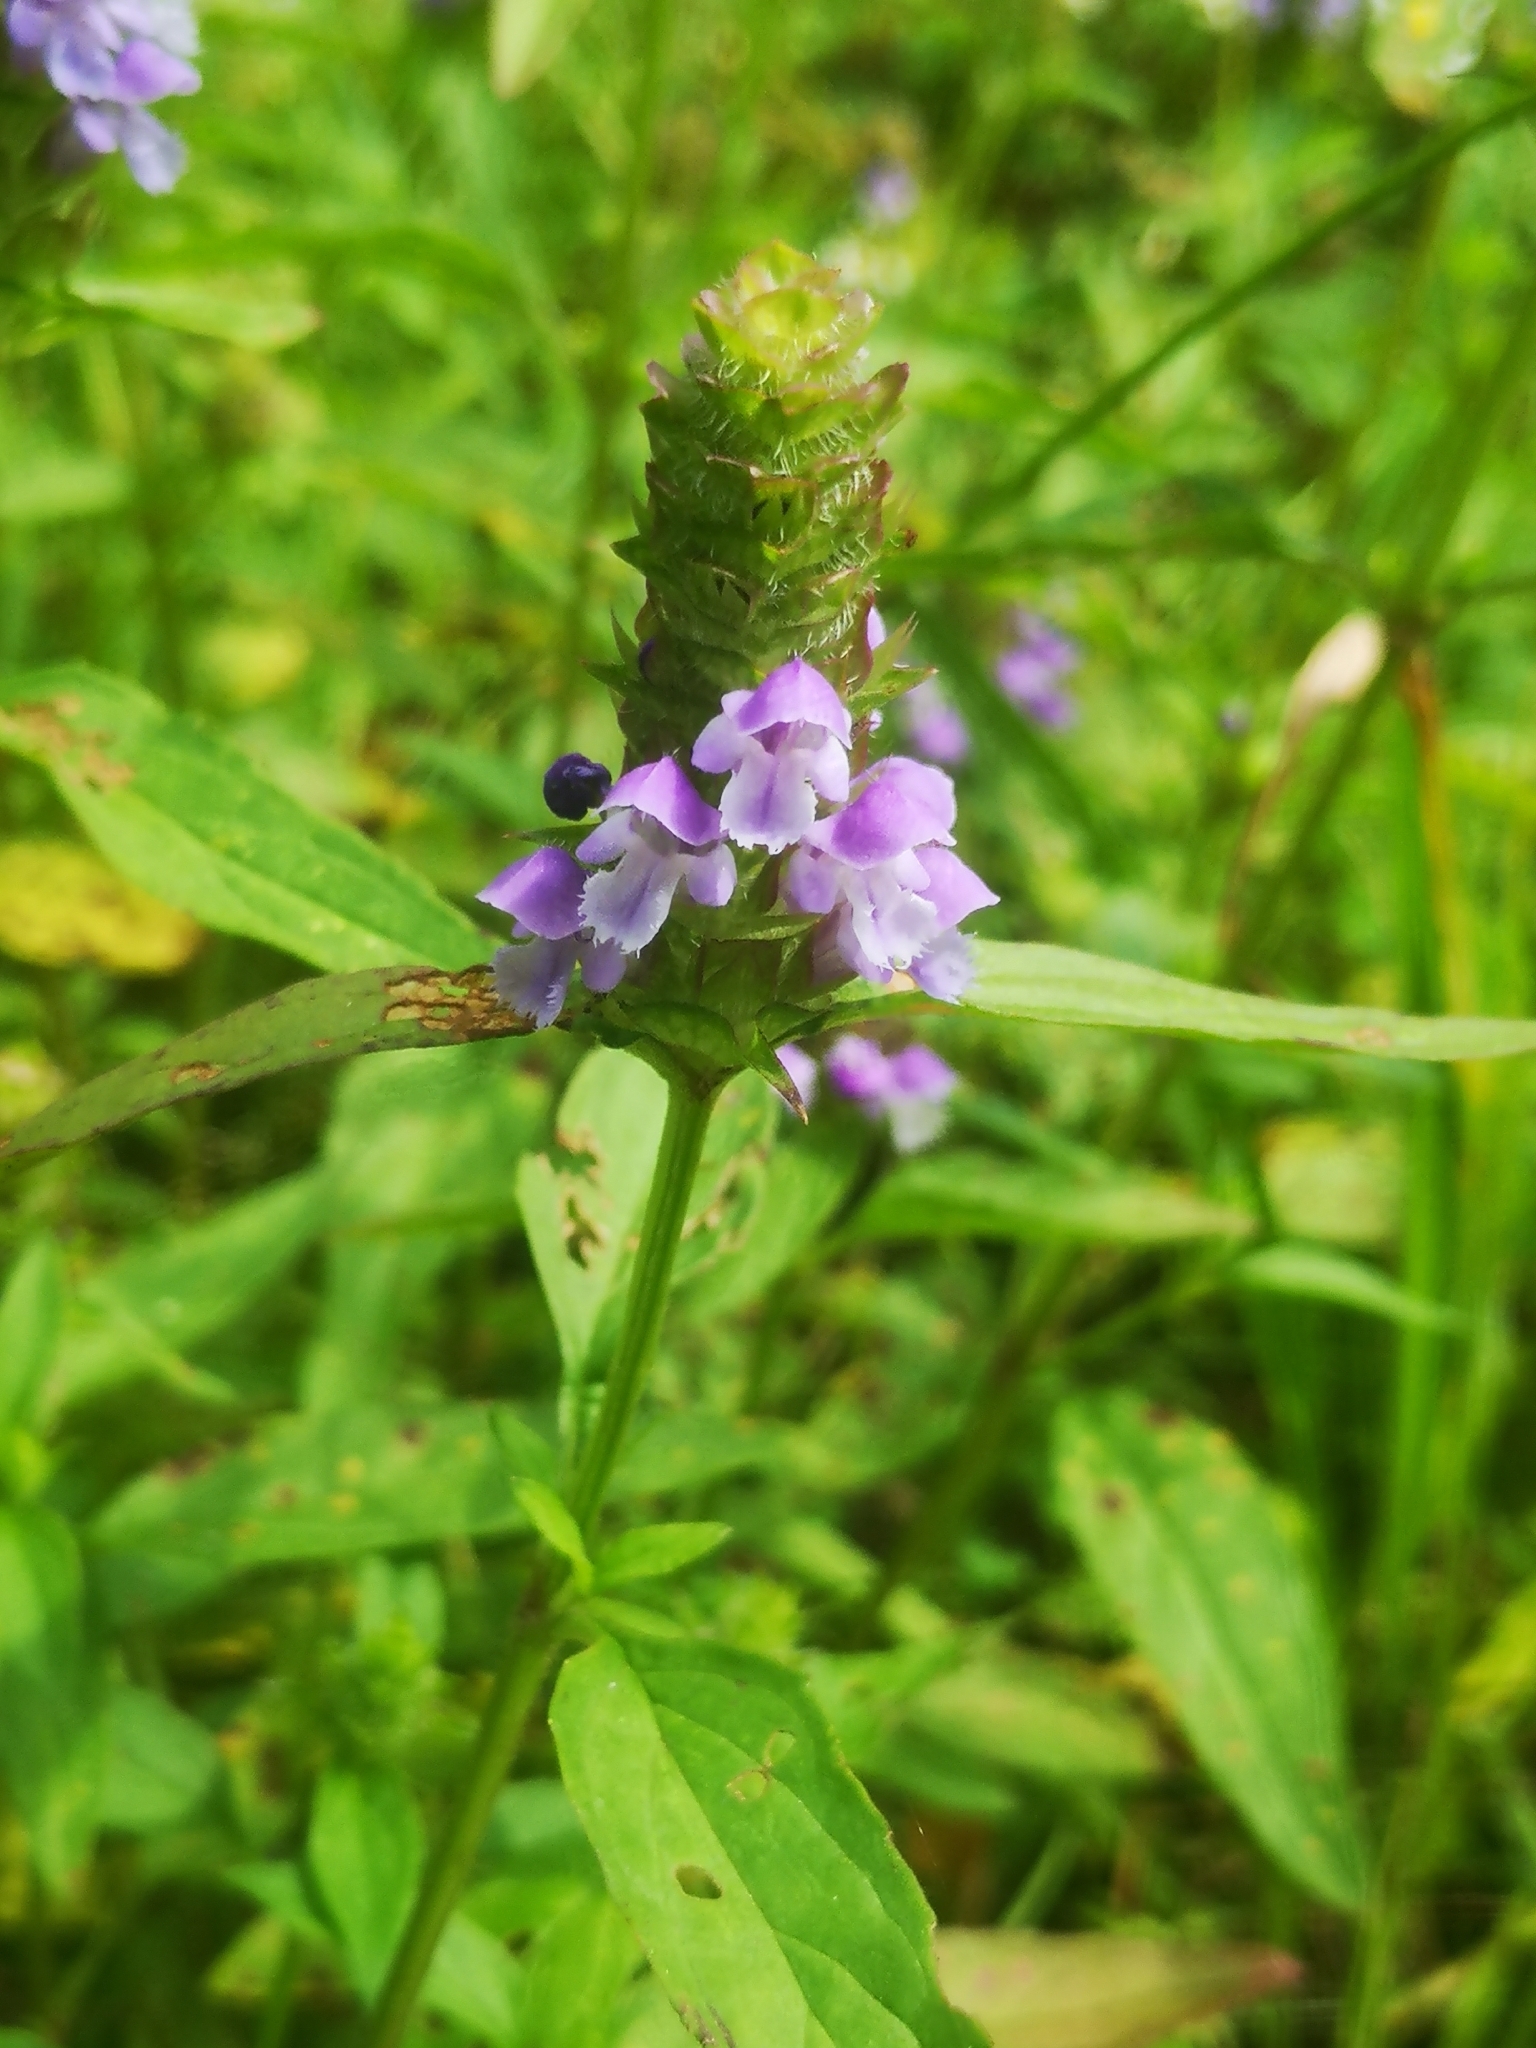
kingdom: Plantae
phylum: Tracheophyta
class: Magnoliopsida
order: Lamiales
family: Lamiaceae
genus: Prunella
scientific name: Prunella vulgaris
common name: Heal-all
